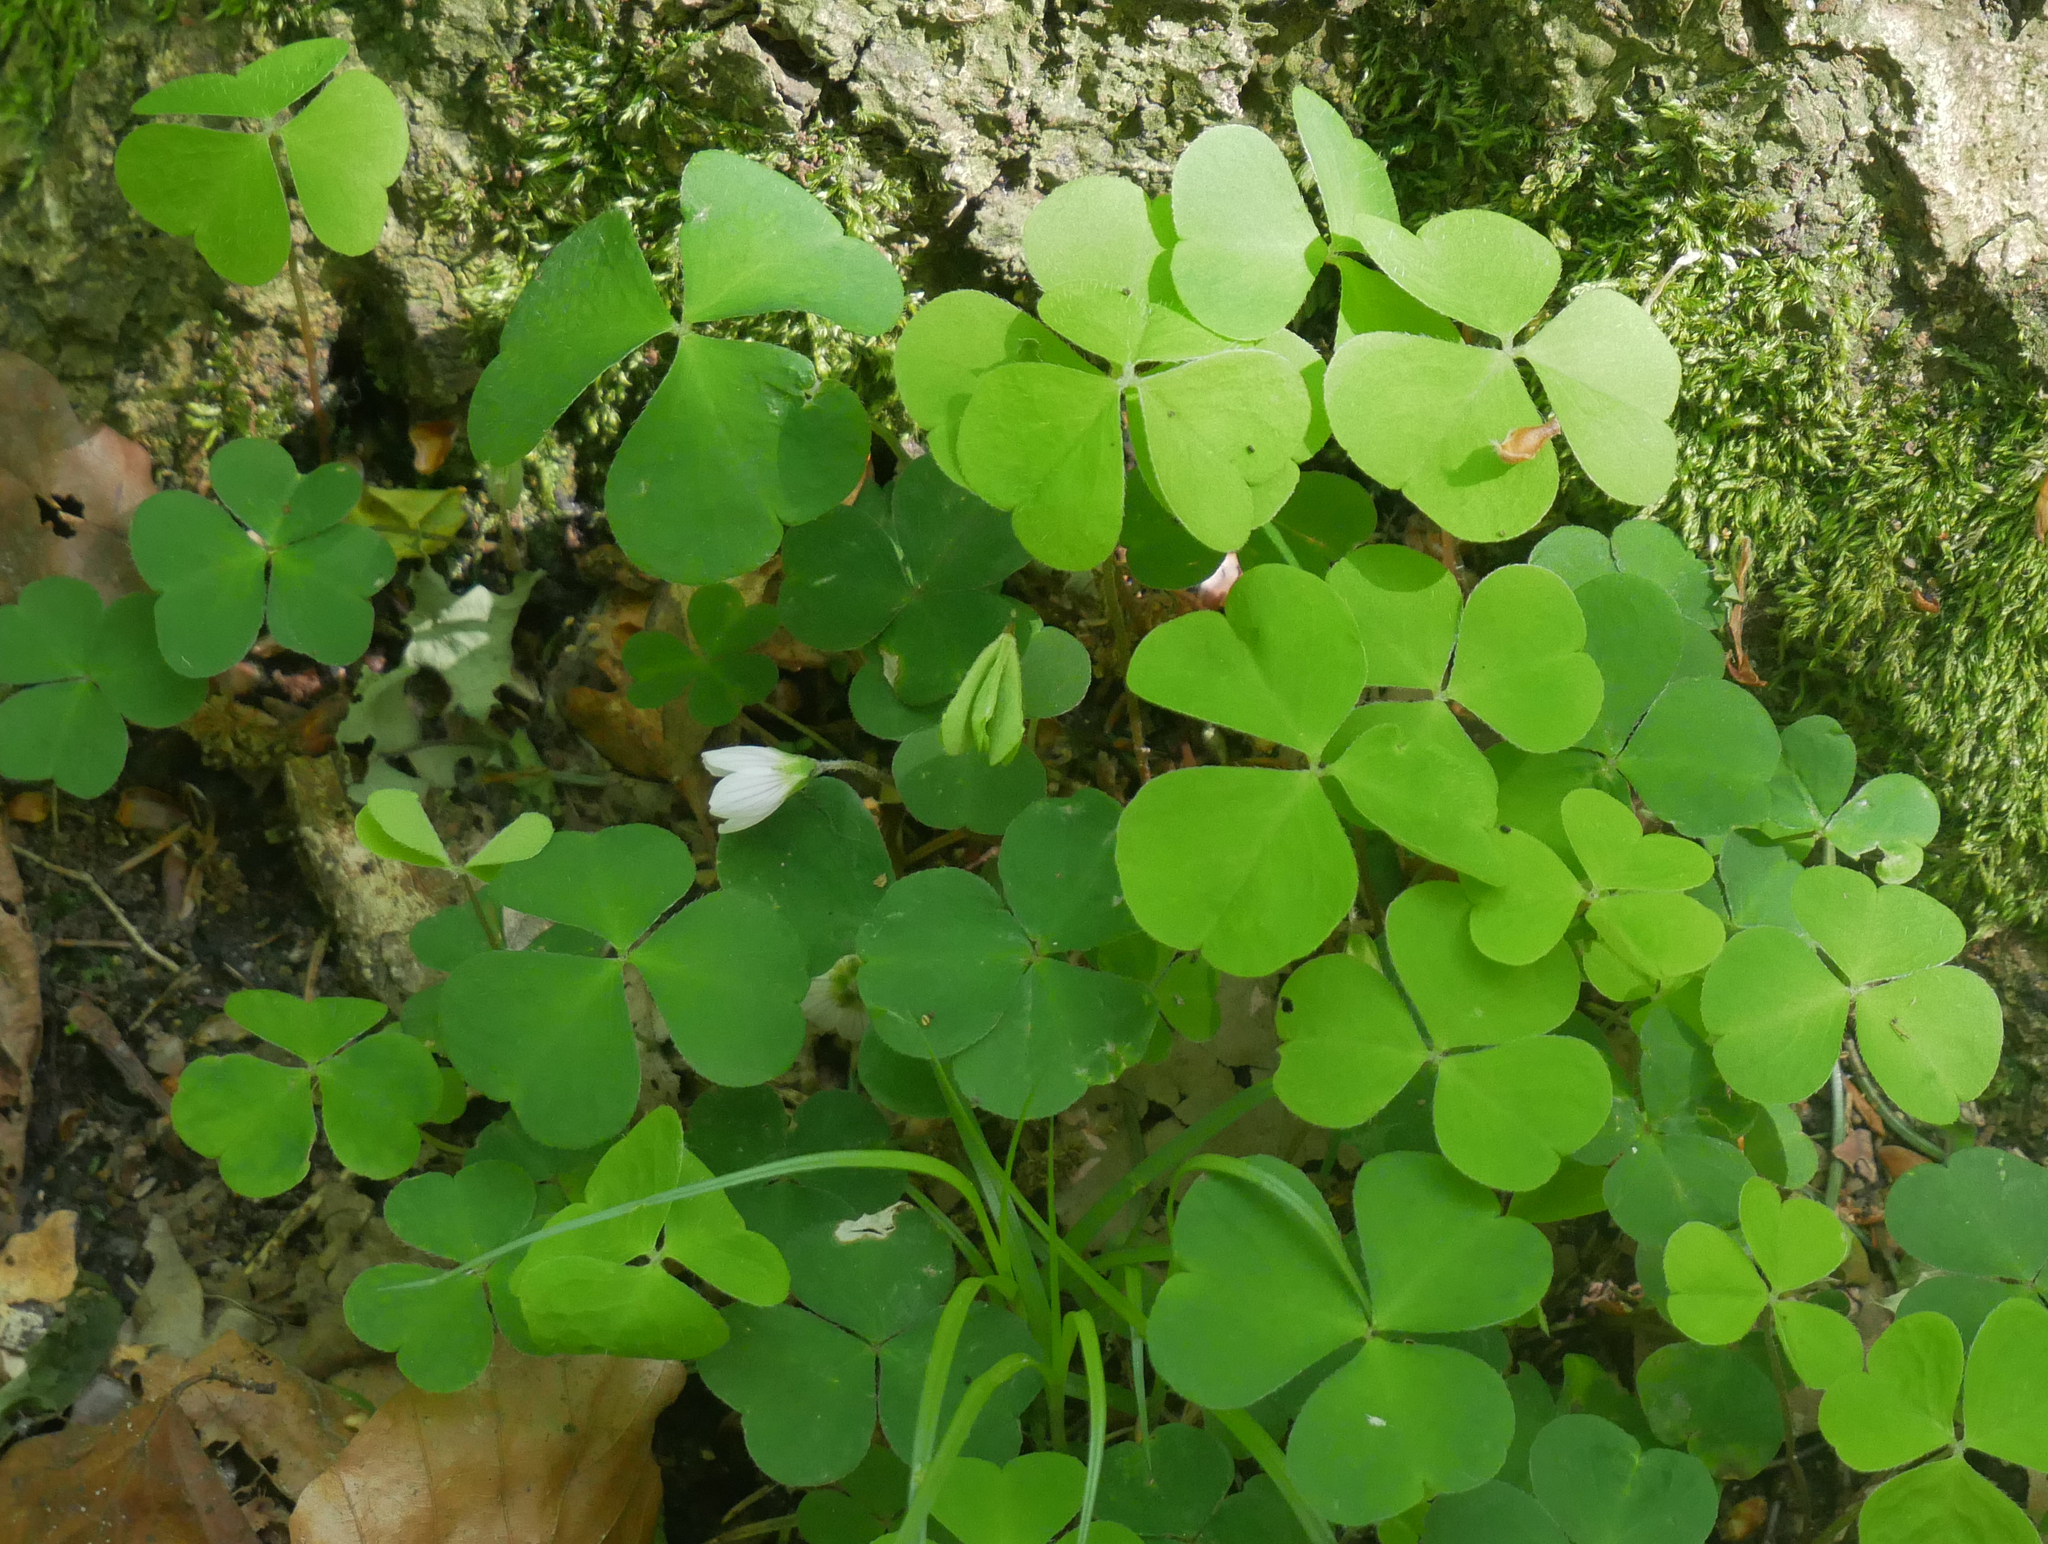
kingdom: Plantae
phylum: Tracheophyta
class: Magnoliopsida
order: Oxalidales
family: Oxalidaceae
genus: Oxalis
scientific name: Oxalis acetosella
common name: Wood-sorrel
